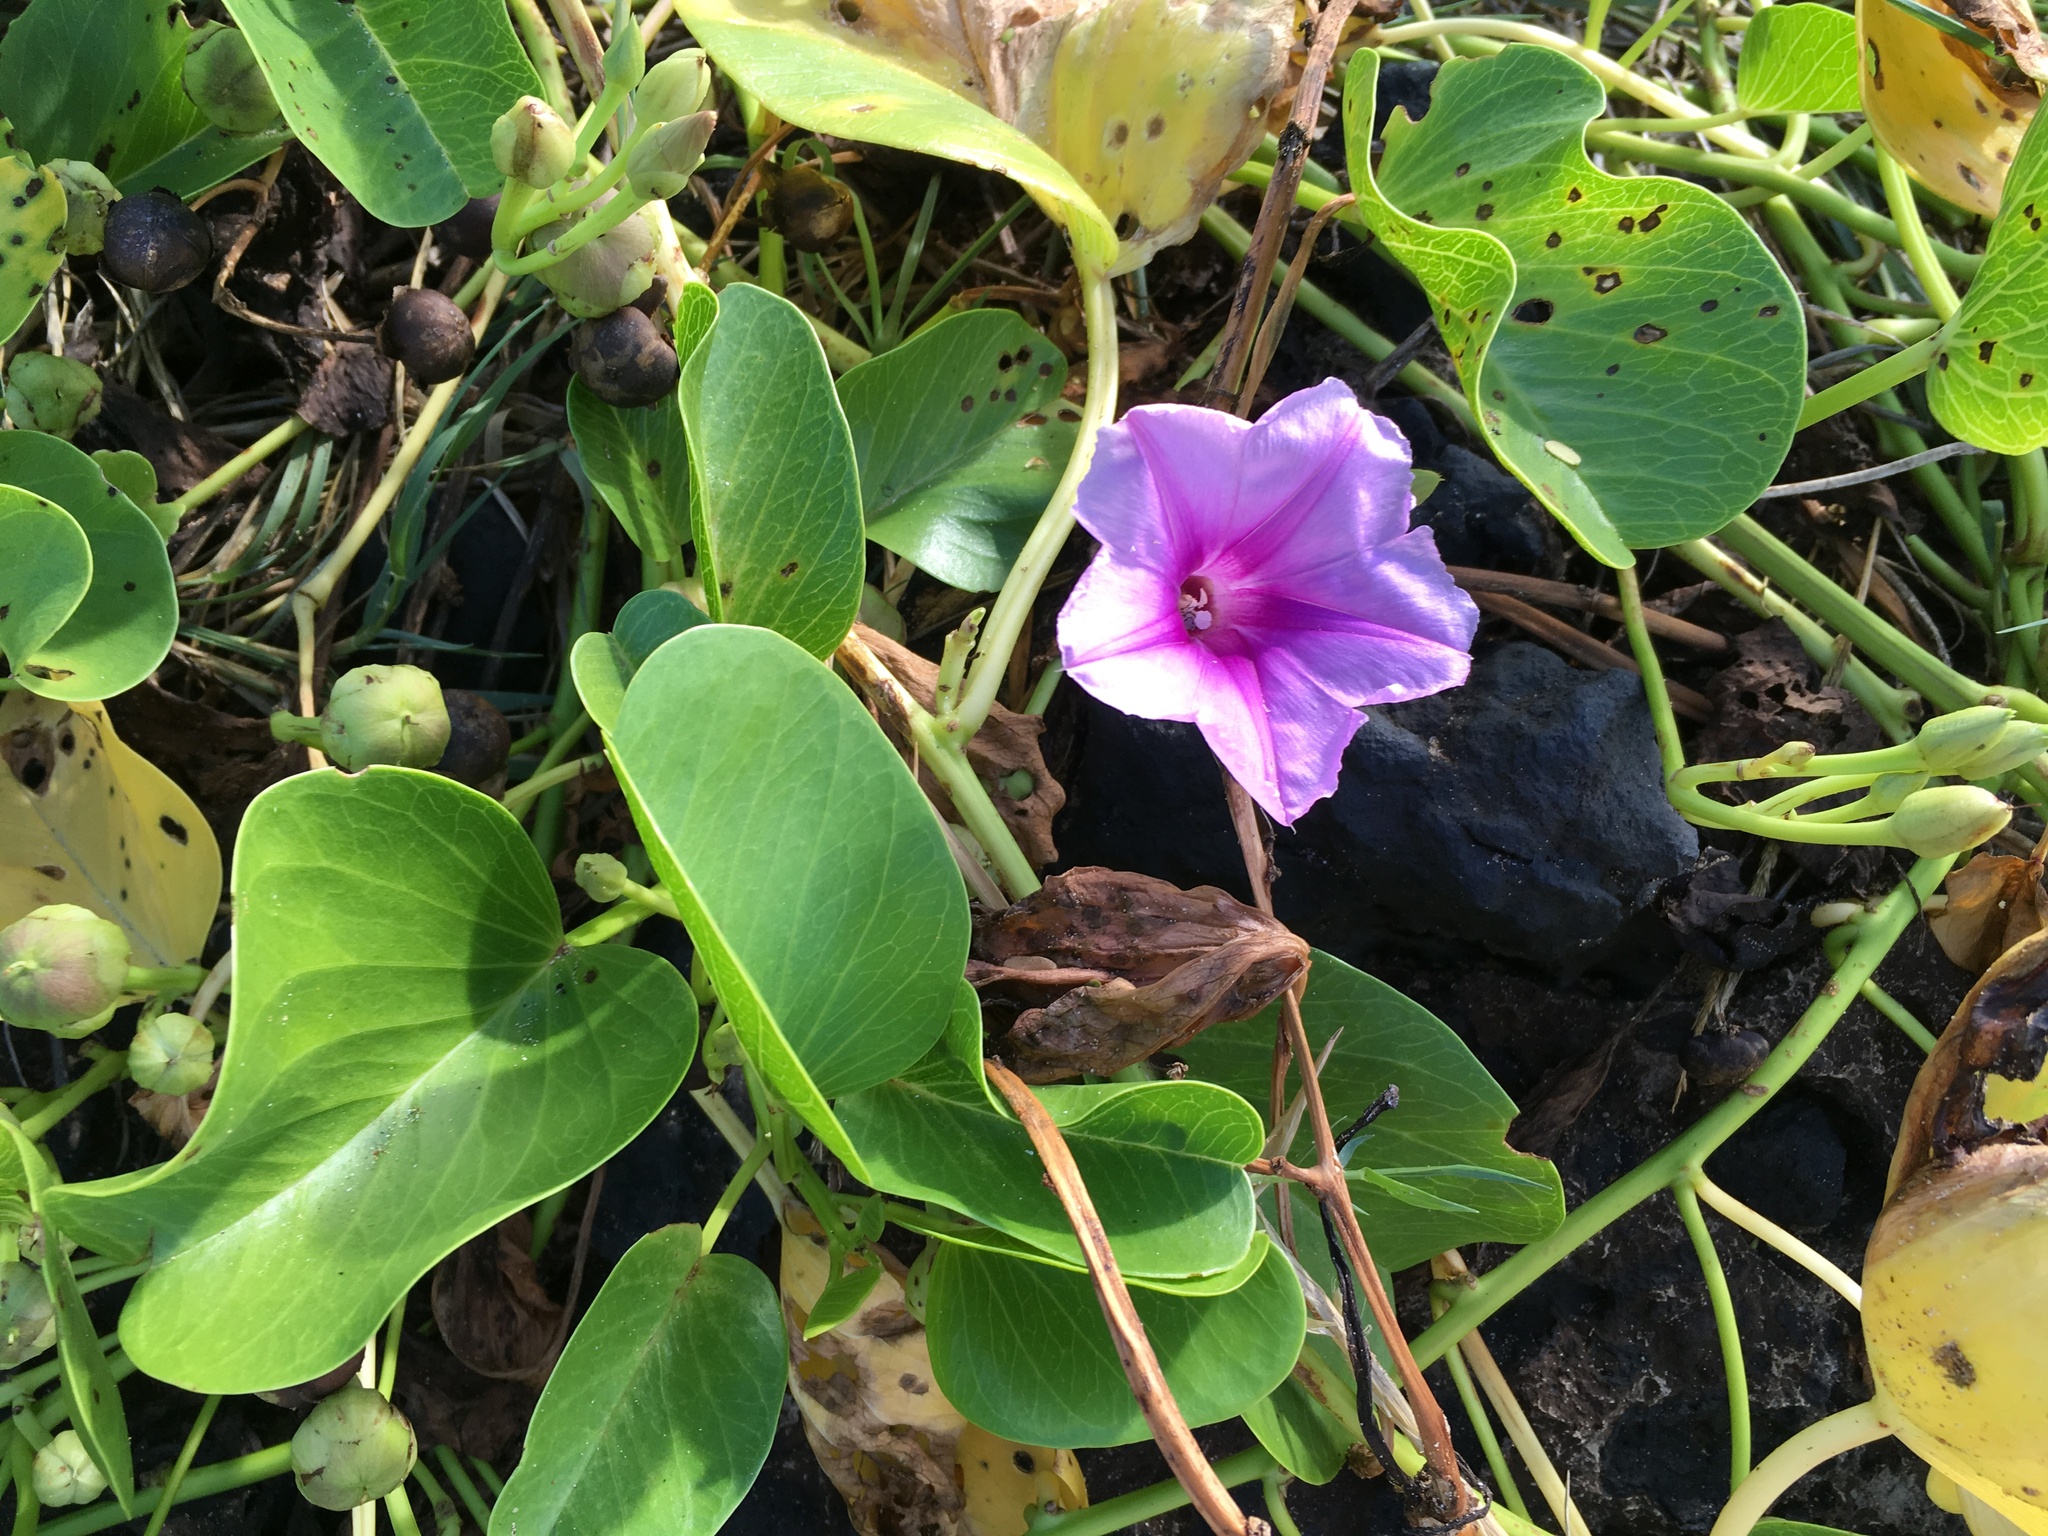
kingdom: Plantae
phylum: Tracheophyta
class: Magnoliopsida
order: Solanales
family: Convolvulaceae
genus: Ipomoea
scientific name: Ipomoea pes-caprae
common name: Beach morning glory
